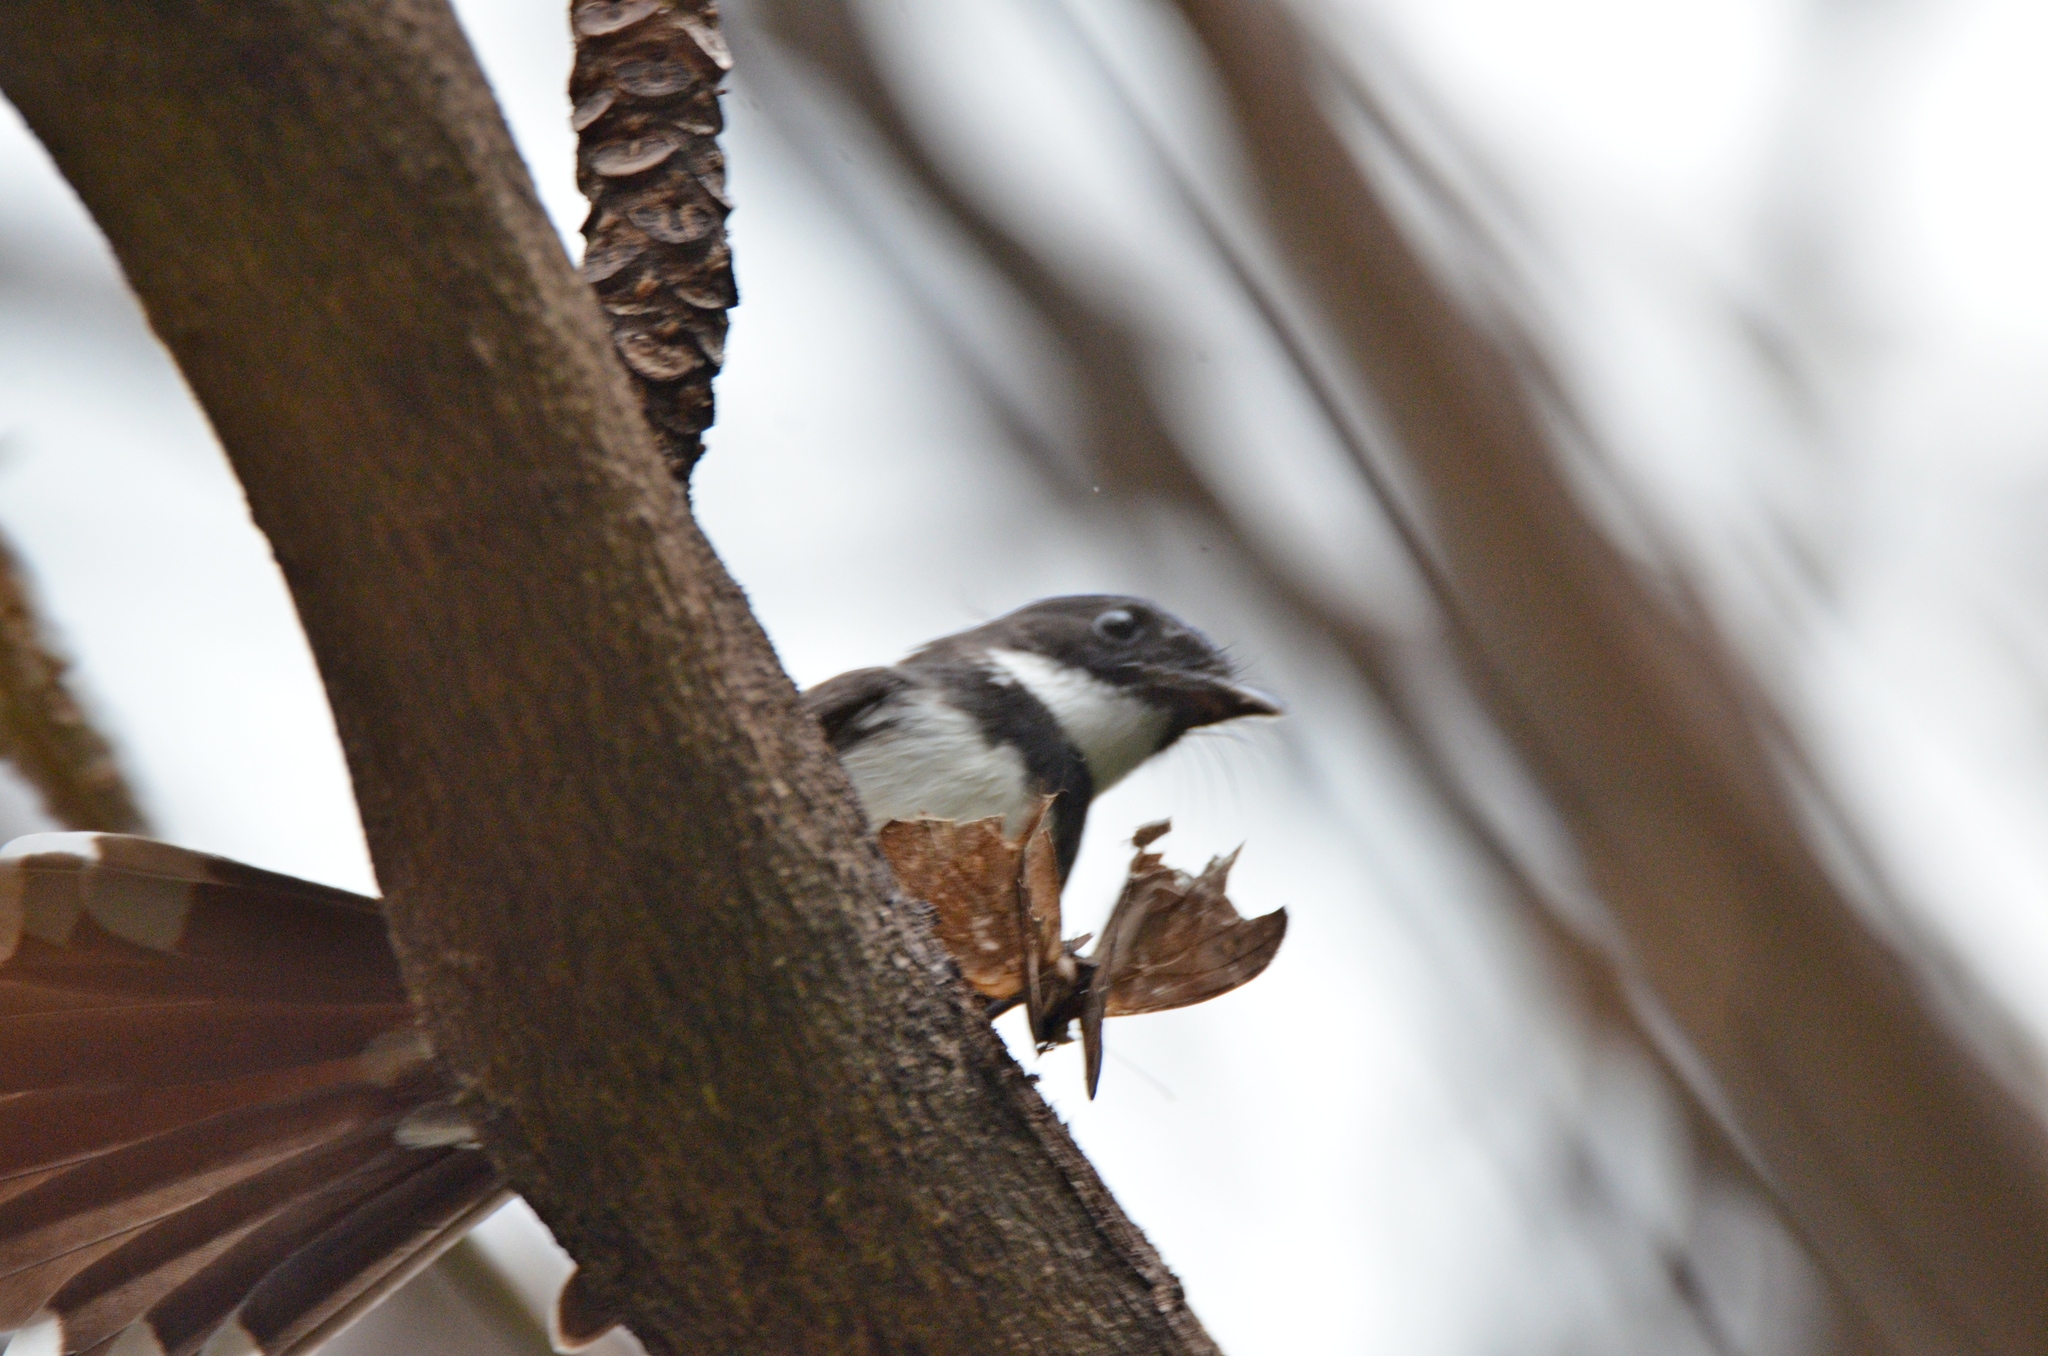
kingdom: Animalia
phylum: Chordata
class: Aves
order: Passeriformes
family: Rhipiduridae
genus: Rhipidura
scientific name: Rhipidura javanica
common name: Pied fantail
